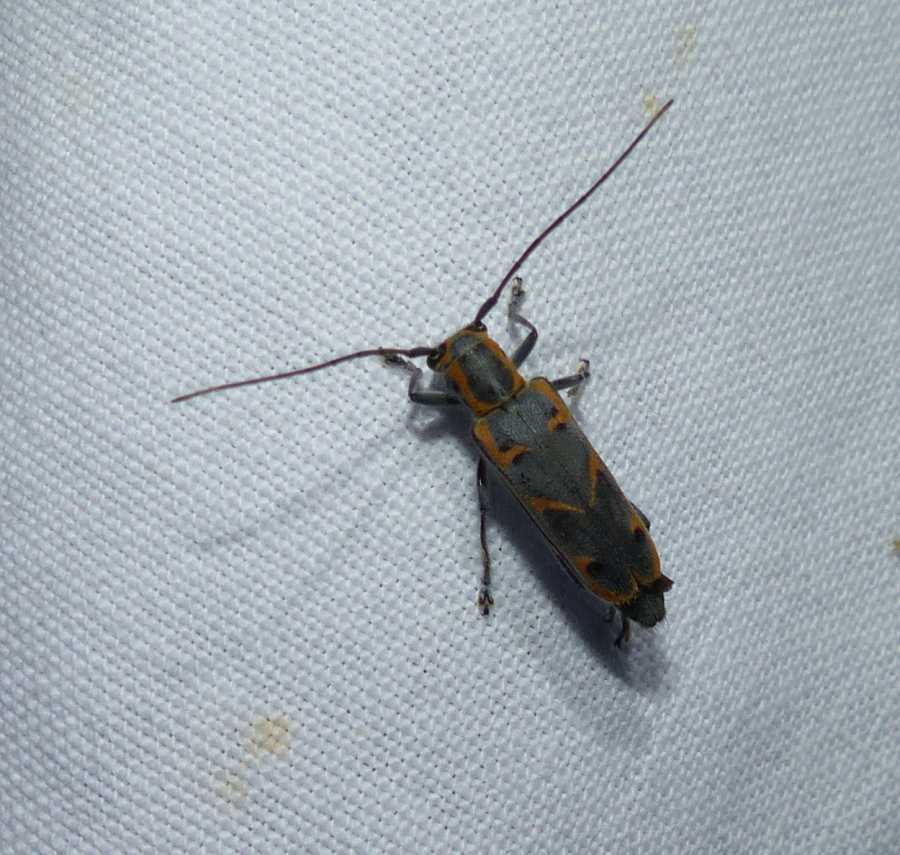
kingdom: Animalia
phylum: Arthropoda
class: Insecta
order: Coleoptera
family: Cerambycidae
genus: Saperda
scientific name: Saperda tridentata
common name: Elm borer
